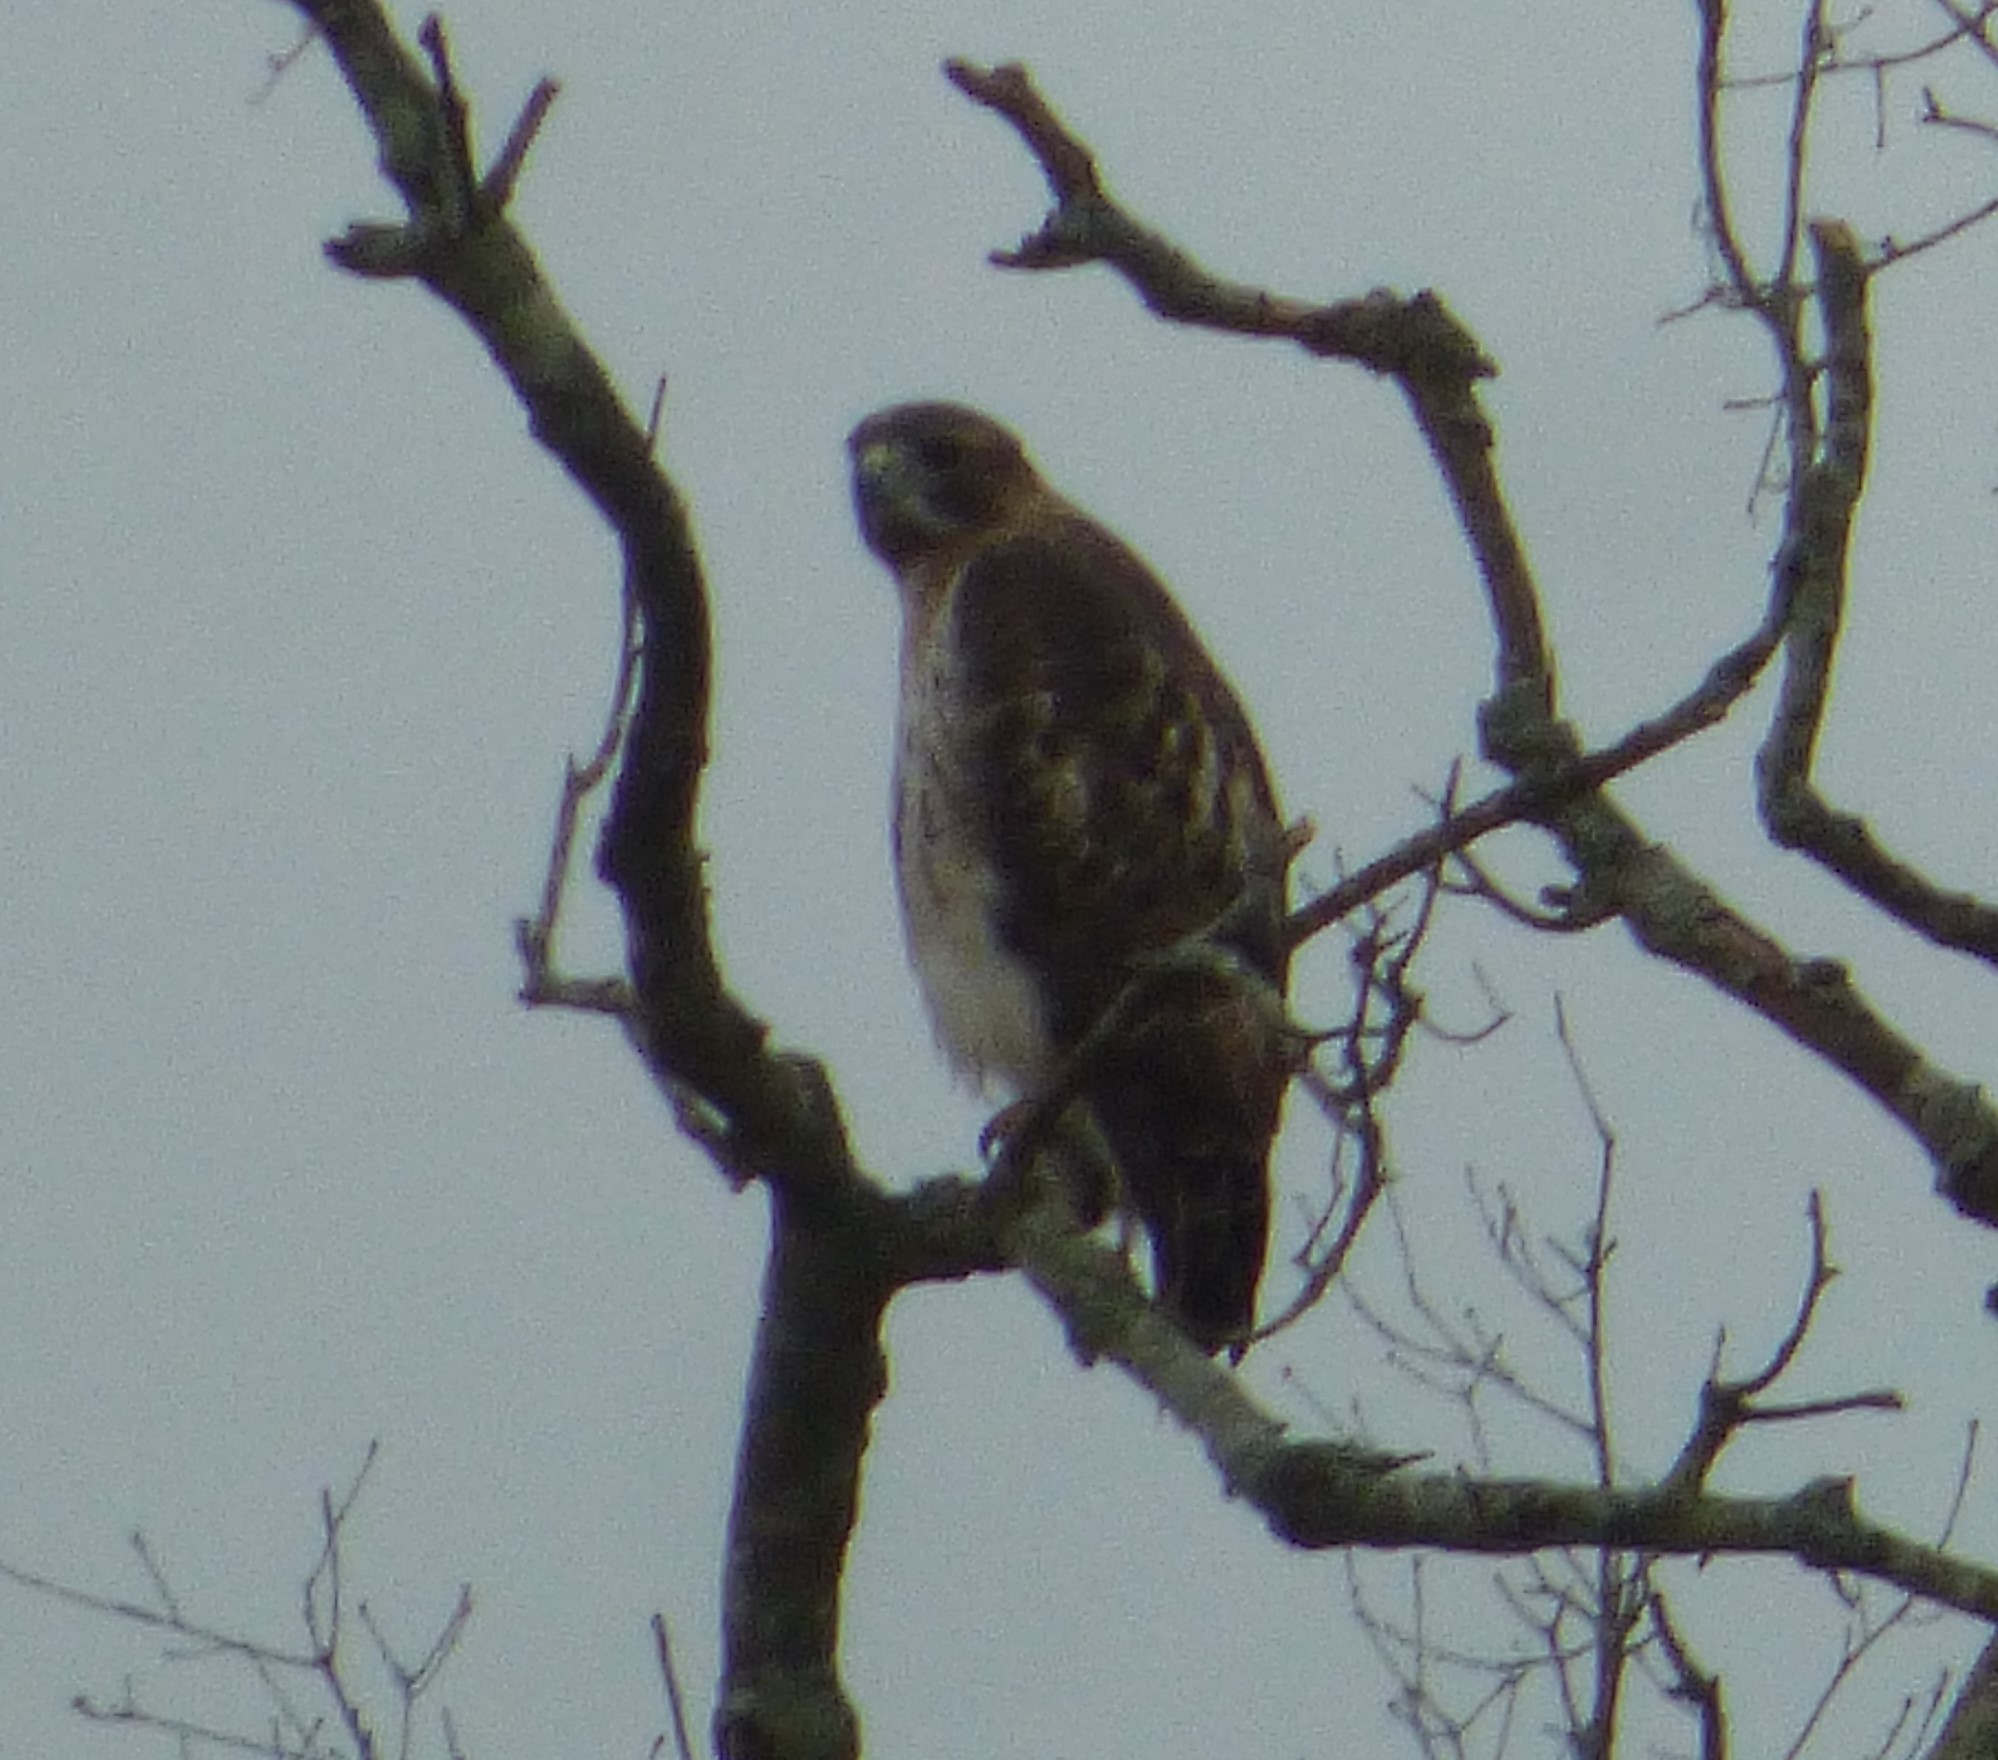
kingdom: Animalia
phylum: Chordata
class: Aves
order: Accipitriformes
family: Accipitridae
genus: Buteo
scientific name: Buteo jamaicensis
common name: Red-tailed hawk
